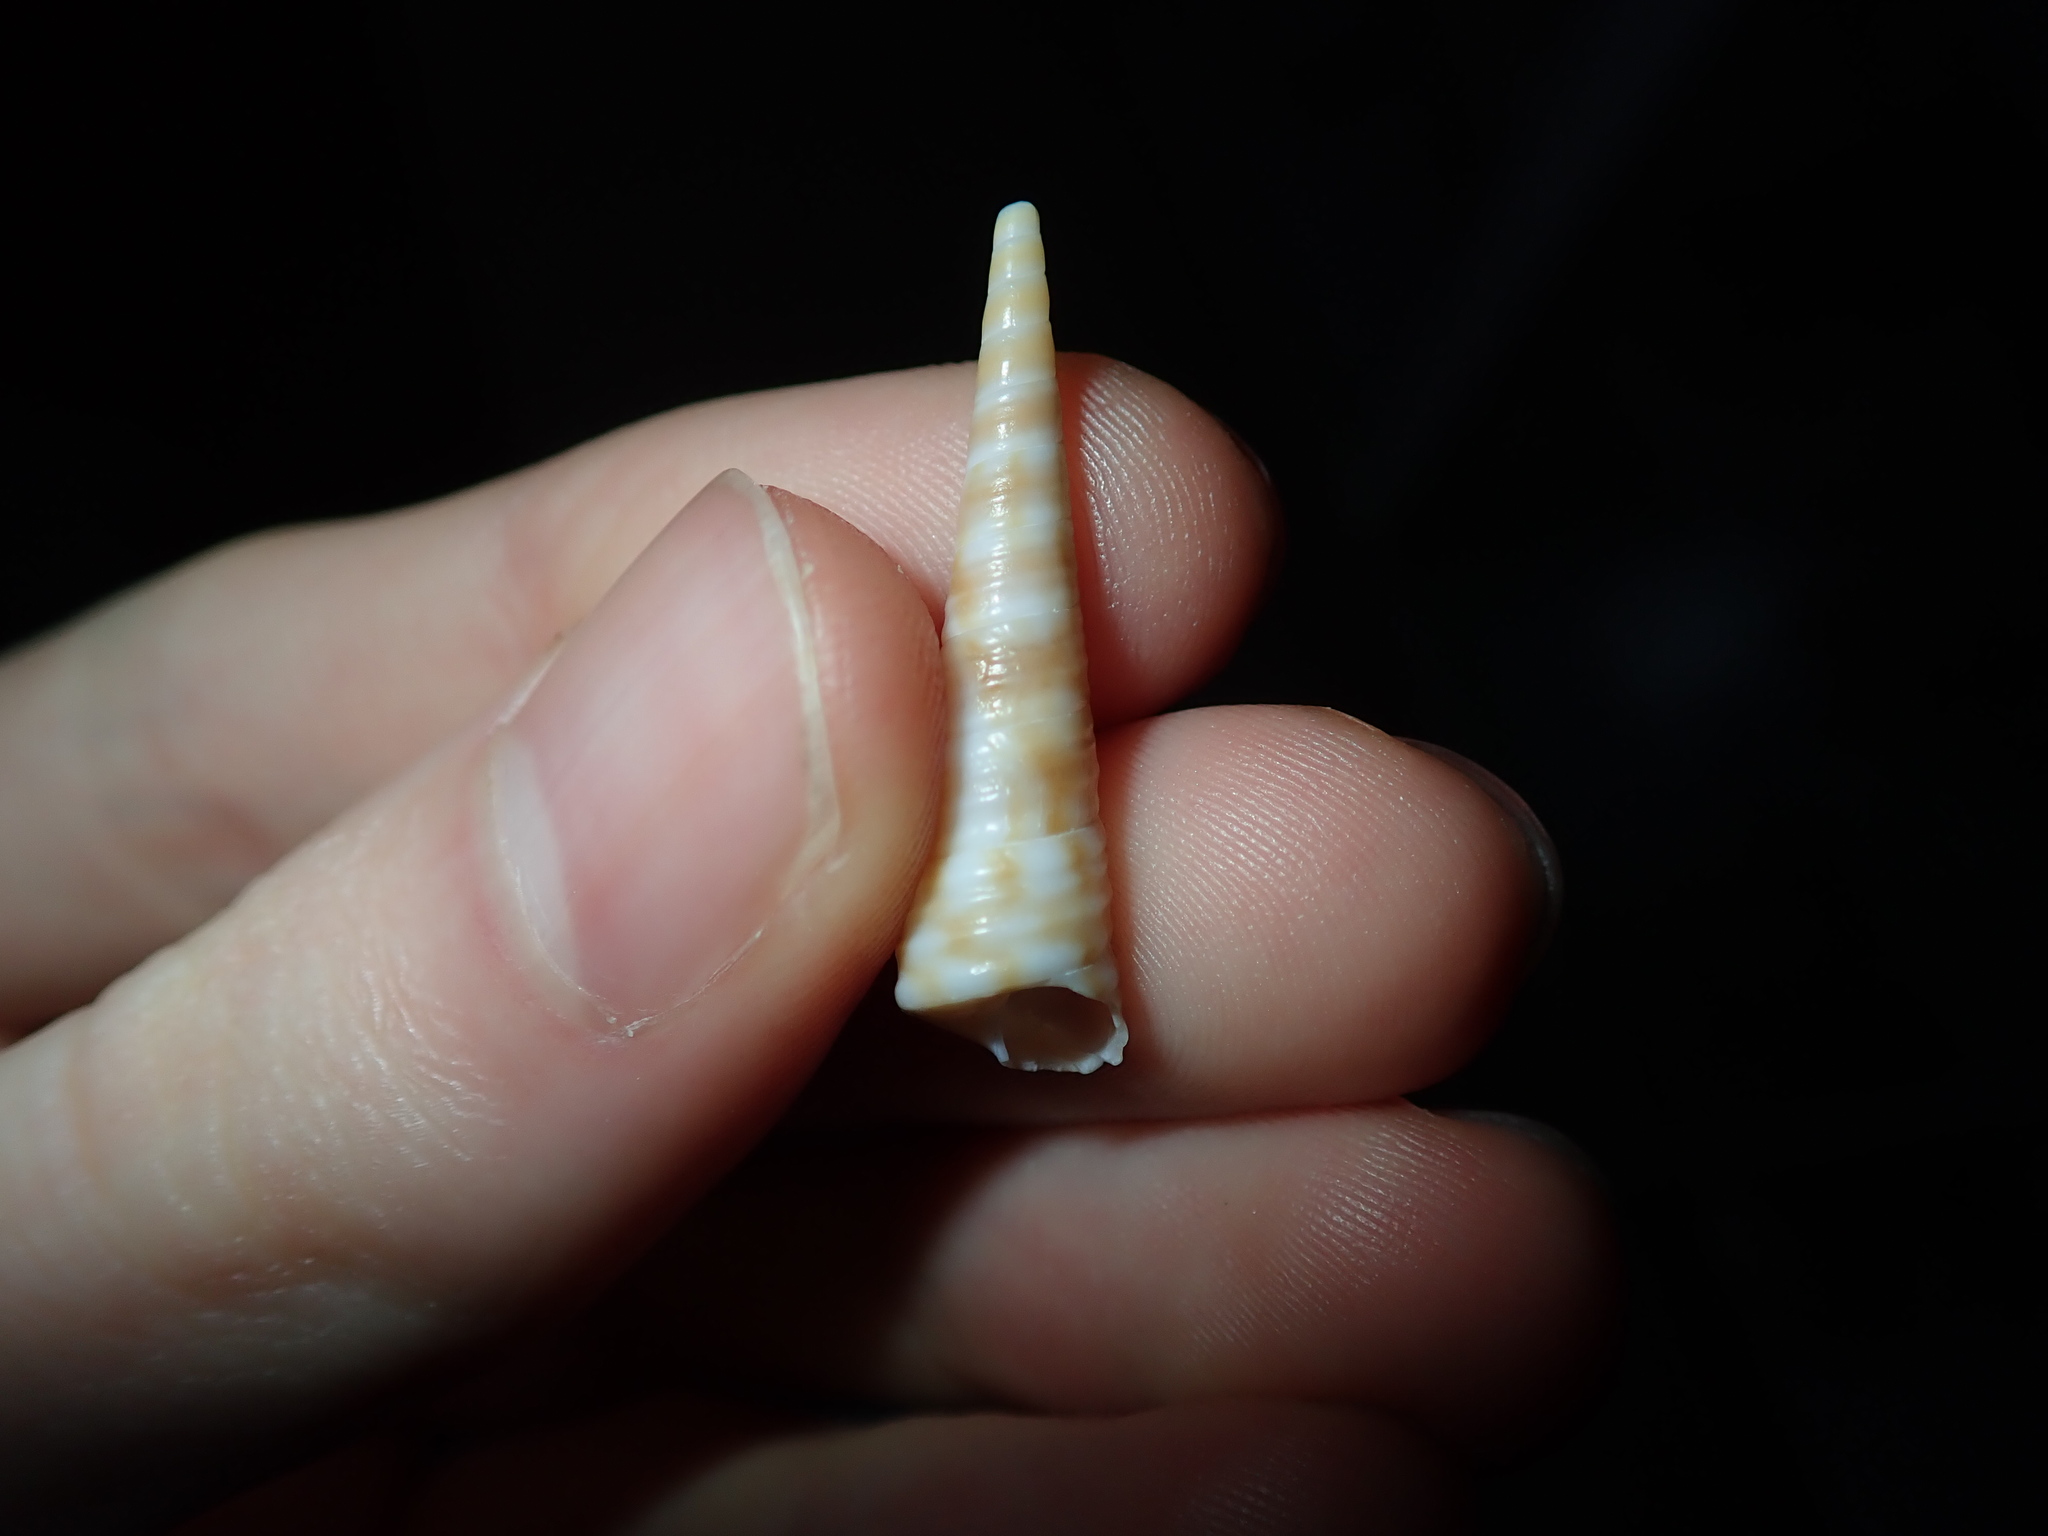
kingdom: Animalia
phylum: Mollusca
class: Gastropoda
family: Turritellidae
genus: Gazameda
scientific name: Gazameda gunnii
